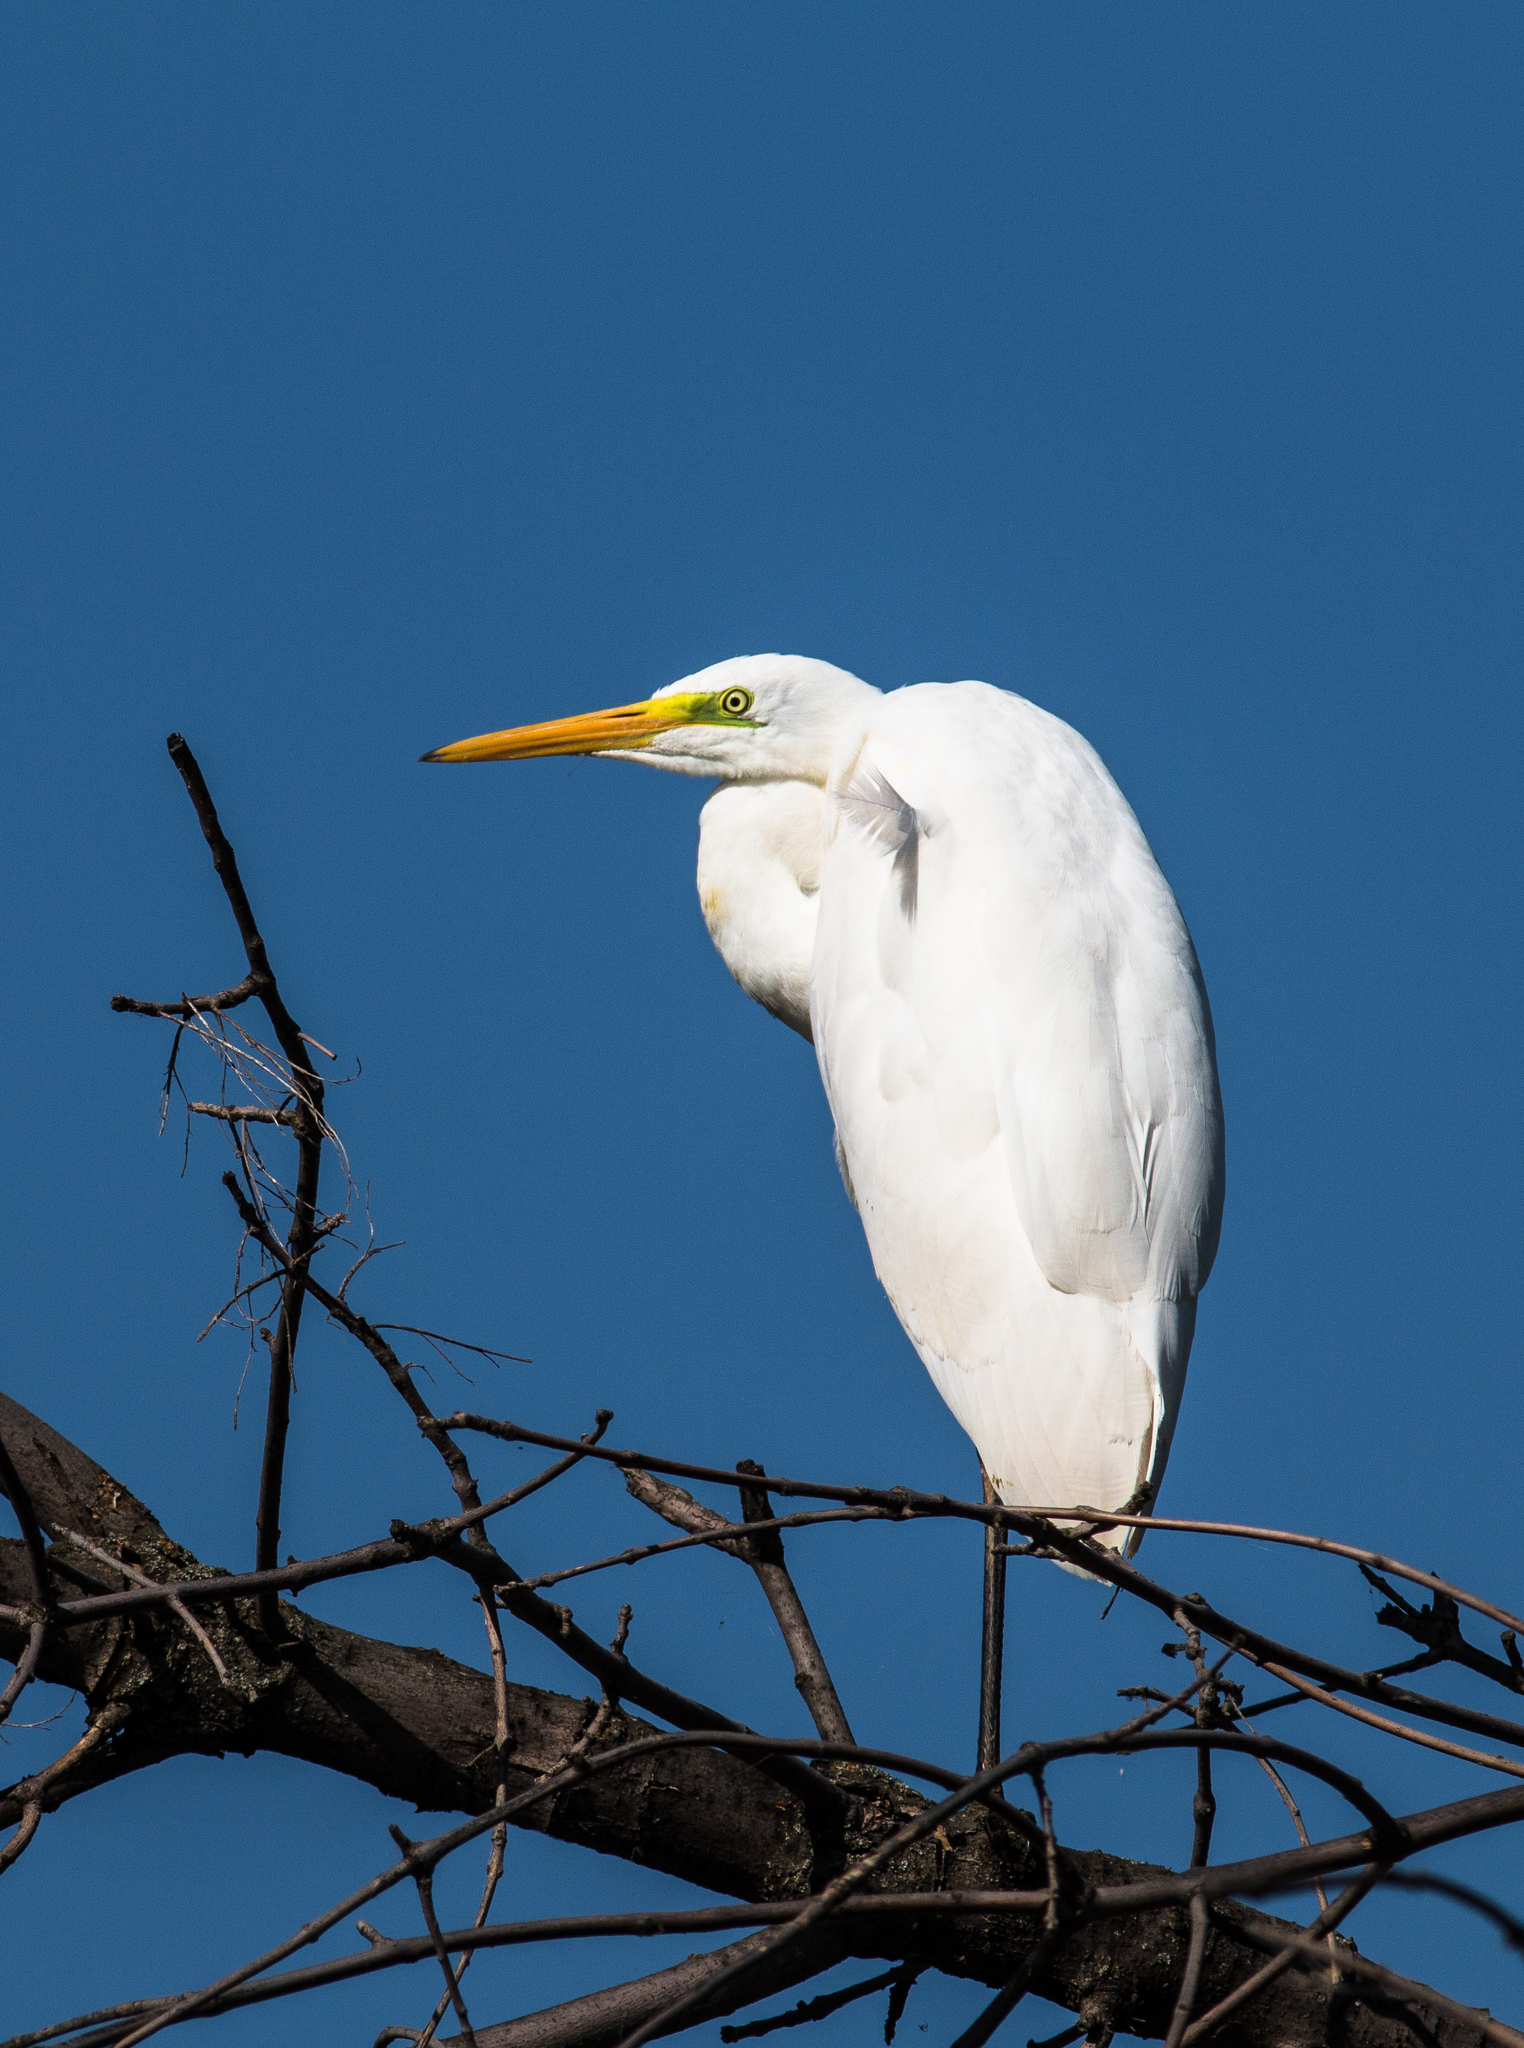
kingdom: Animalia
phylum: Chordata
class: Aves
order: Pelecaniformes
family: Ardeidae
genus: Ardea
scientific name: Ardea alba
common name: Great egret
